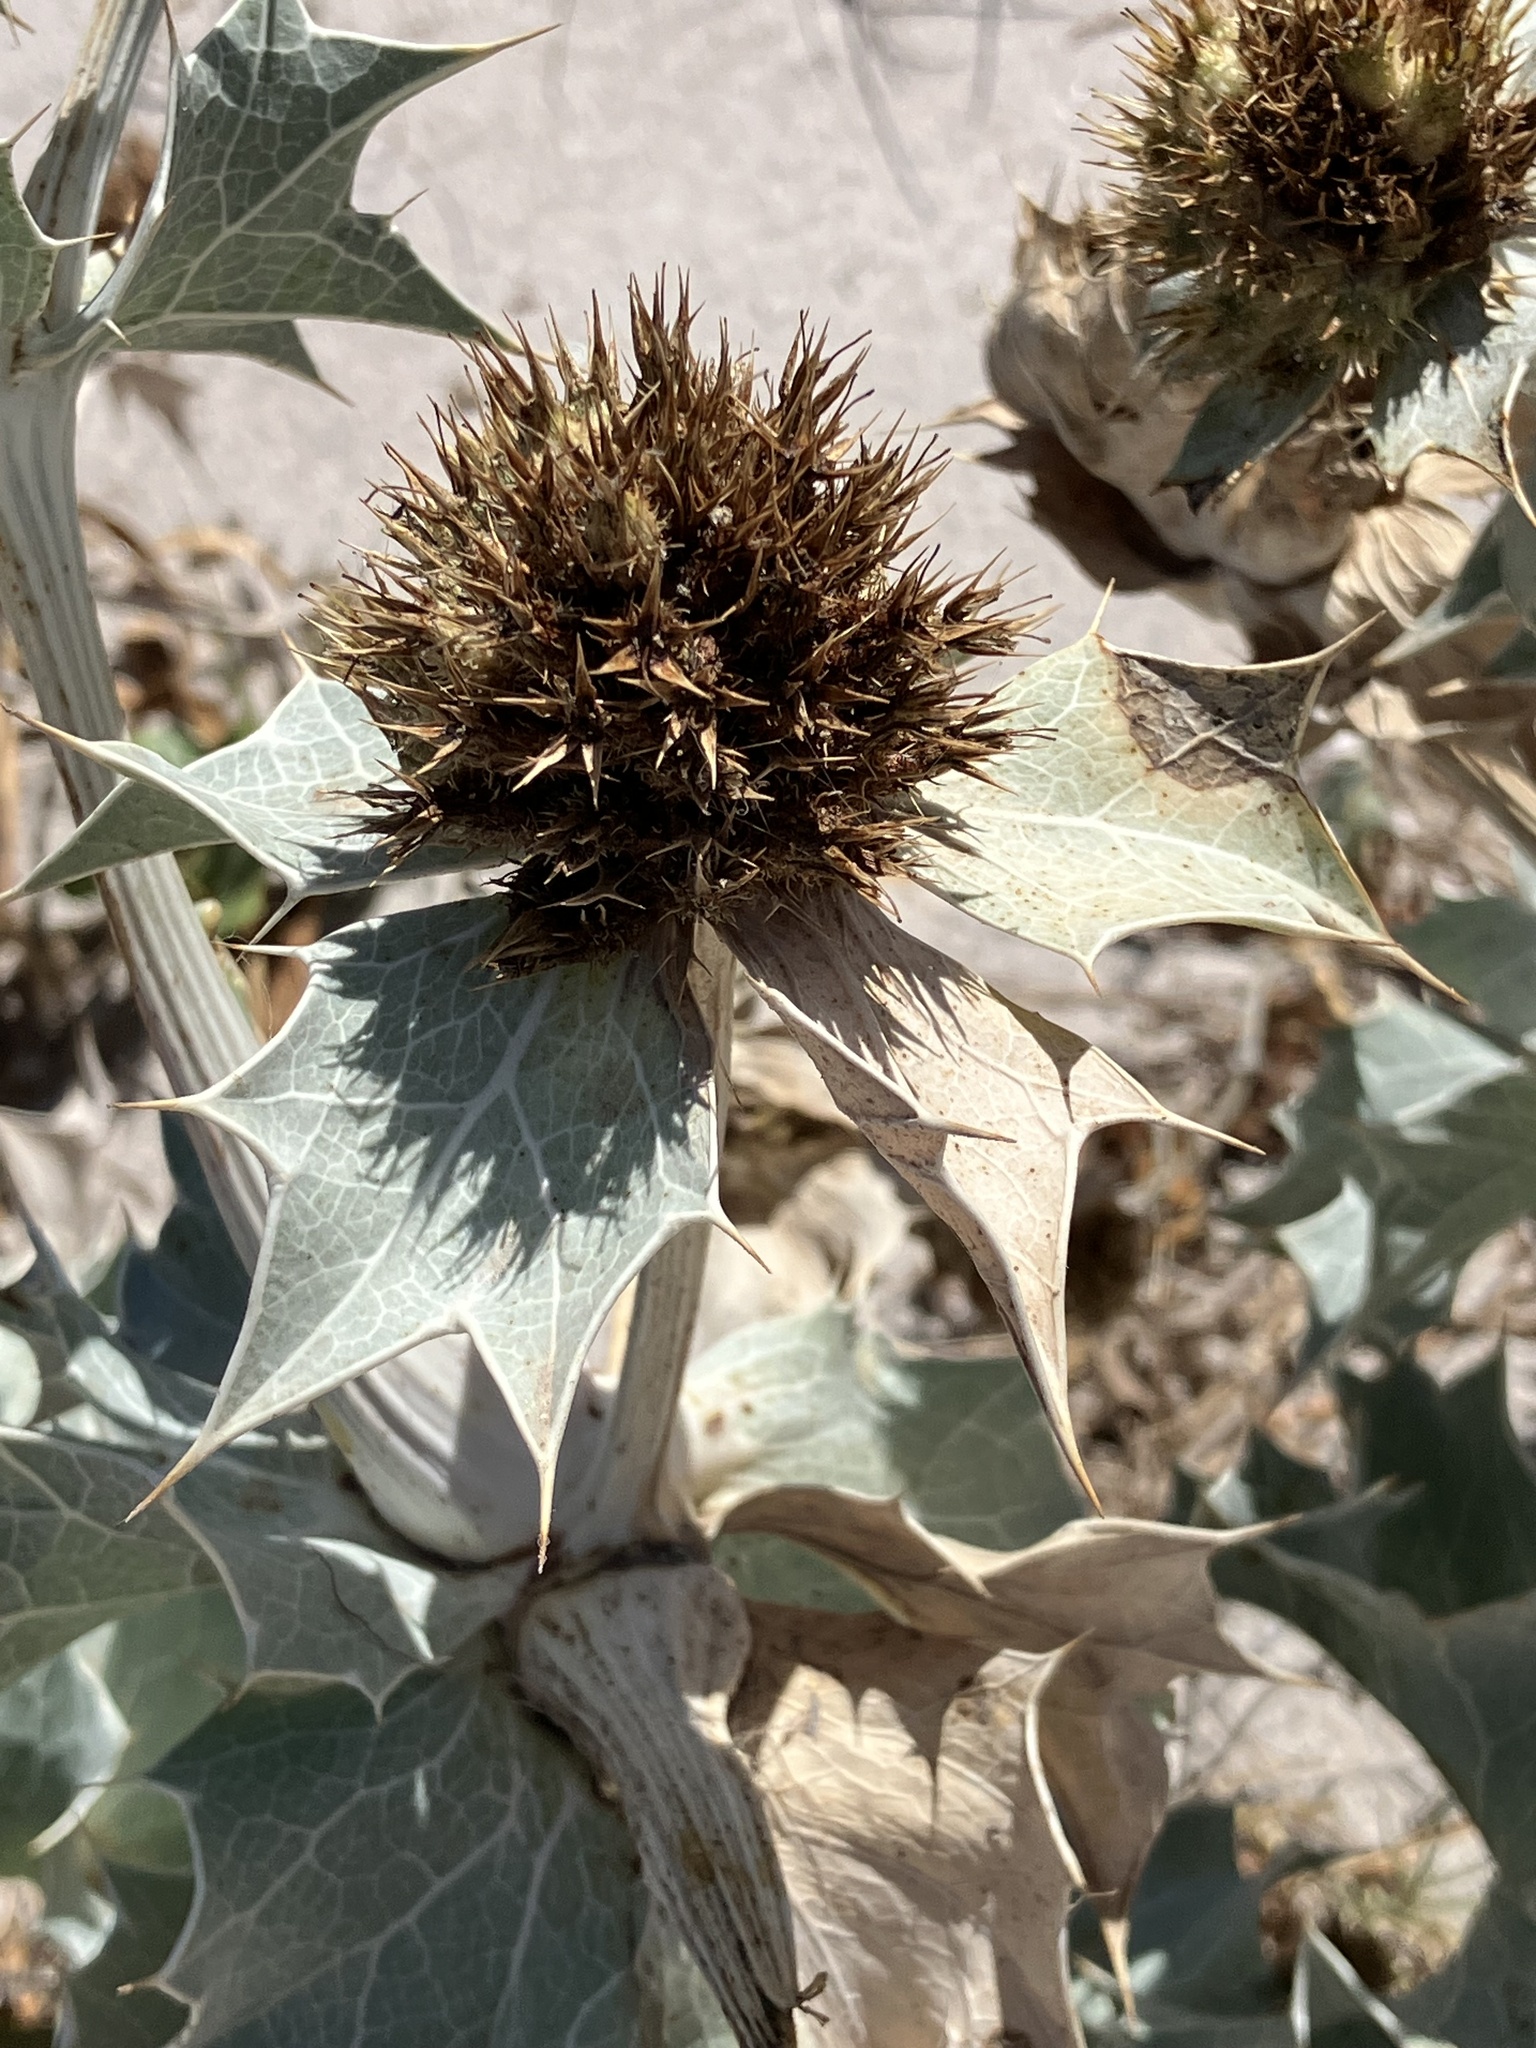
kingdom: Plantae
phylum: Tracheophyta
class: Magnoliopsida
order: Apiales
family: Apiaceae
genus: Eryngium
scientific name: Eryngium maritimum
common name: Sea-holly
